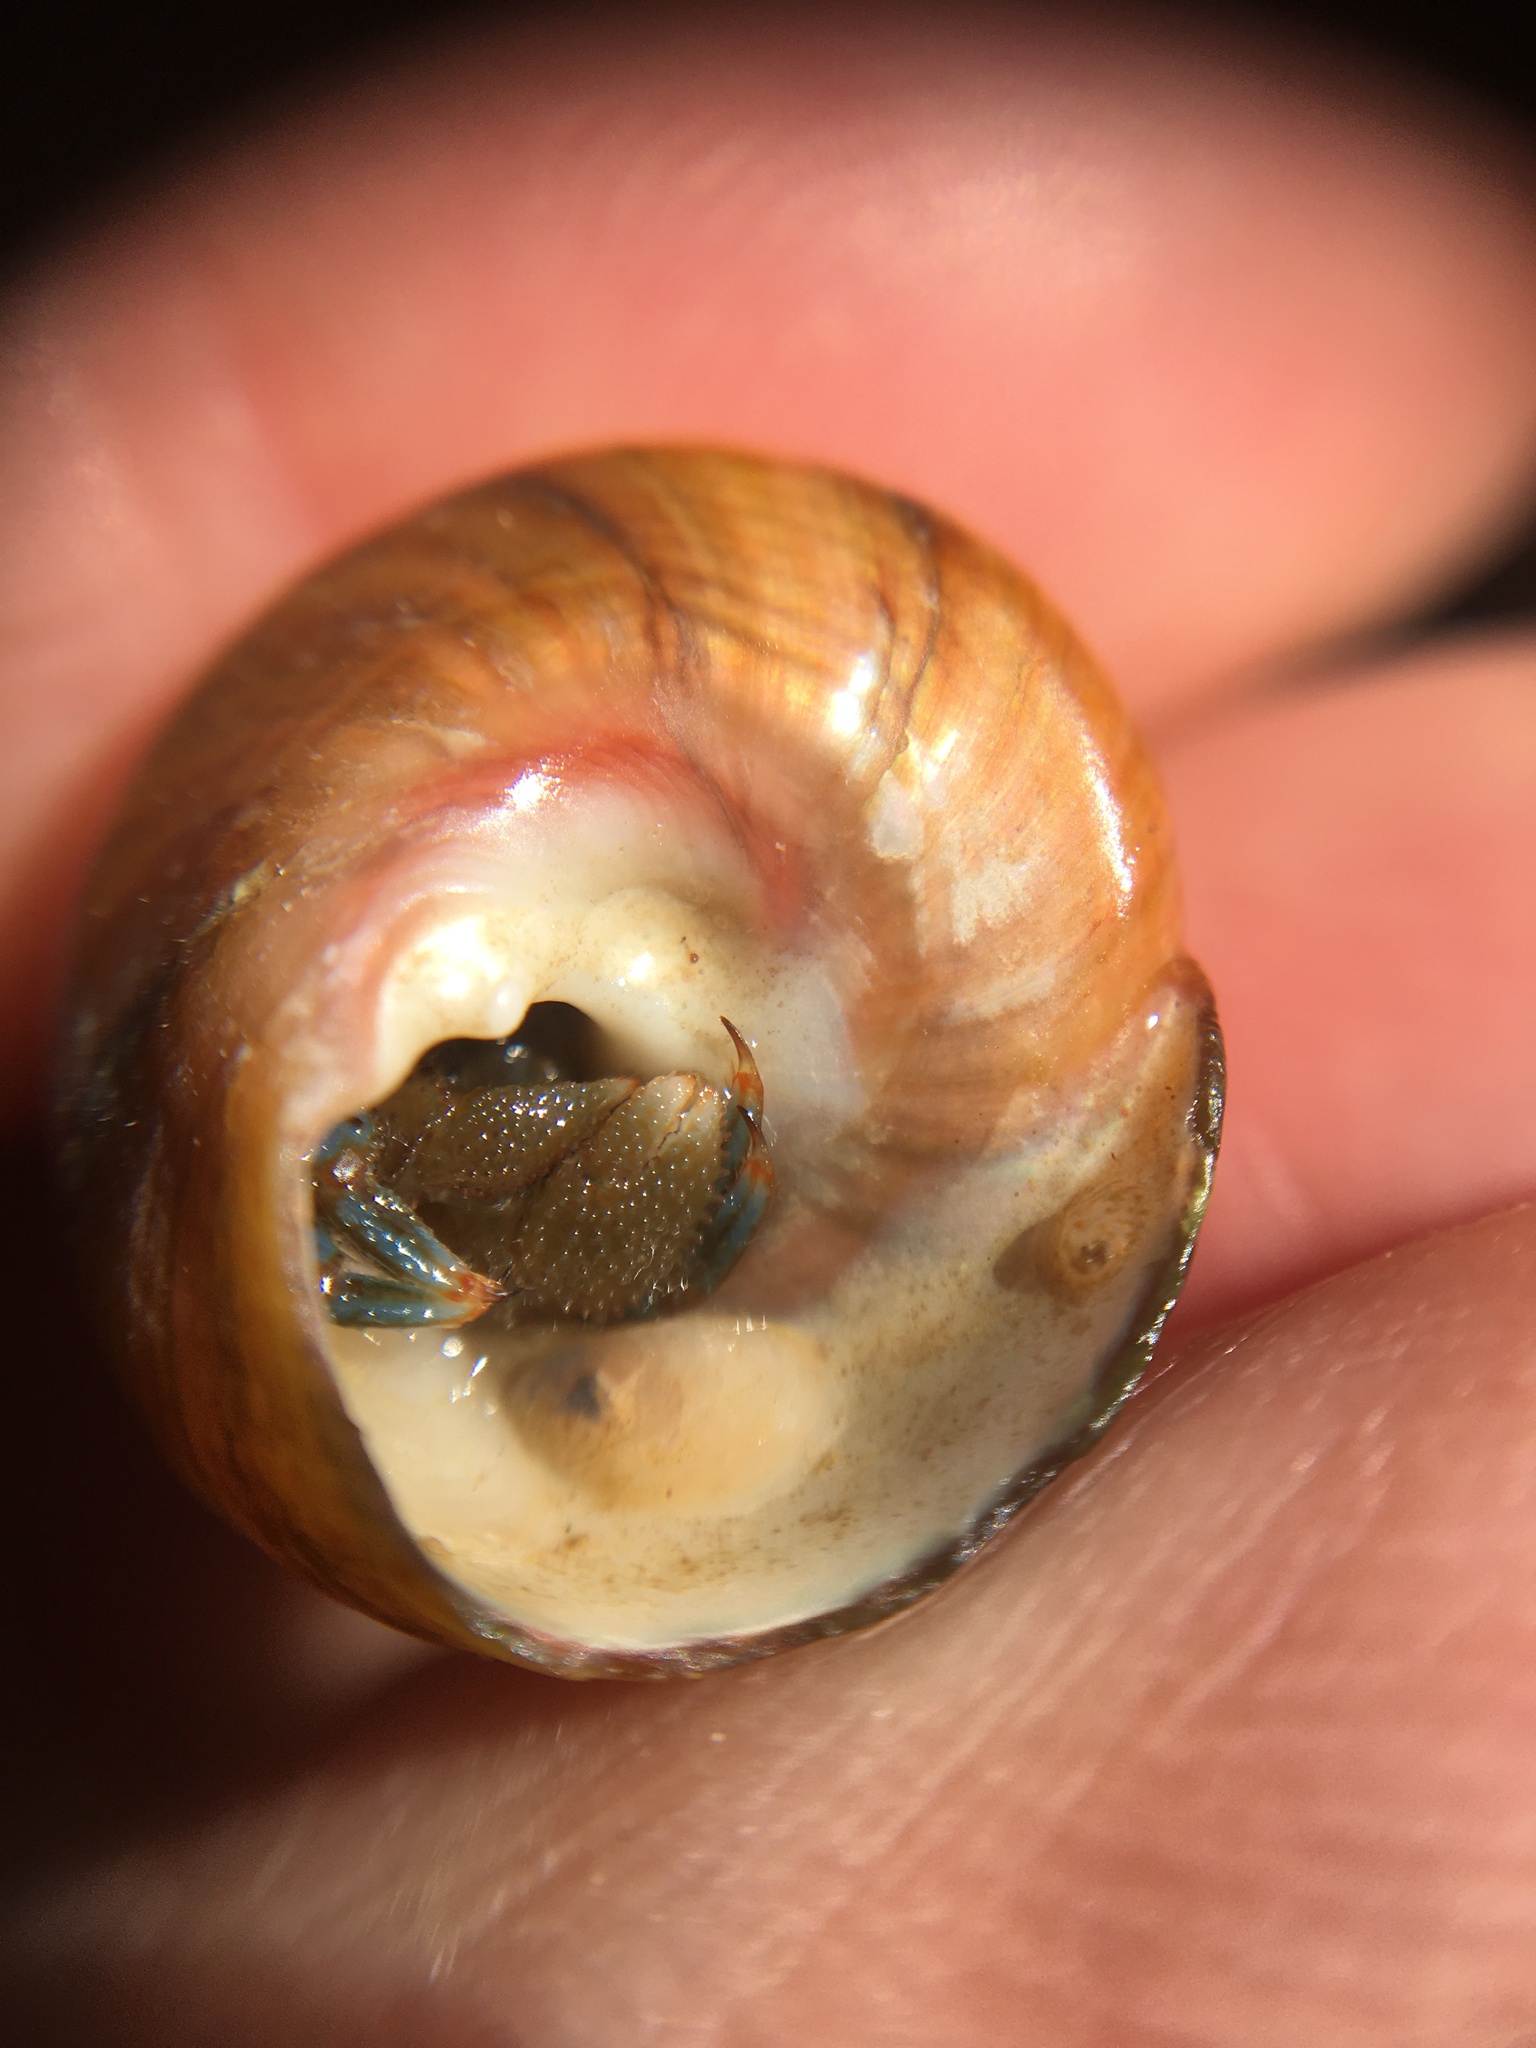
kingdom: Animalia
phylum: Mollusca
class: Gastropoda
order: Trochida
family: Tegulidae
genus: Tegula
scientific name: Tegula brunnea
